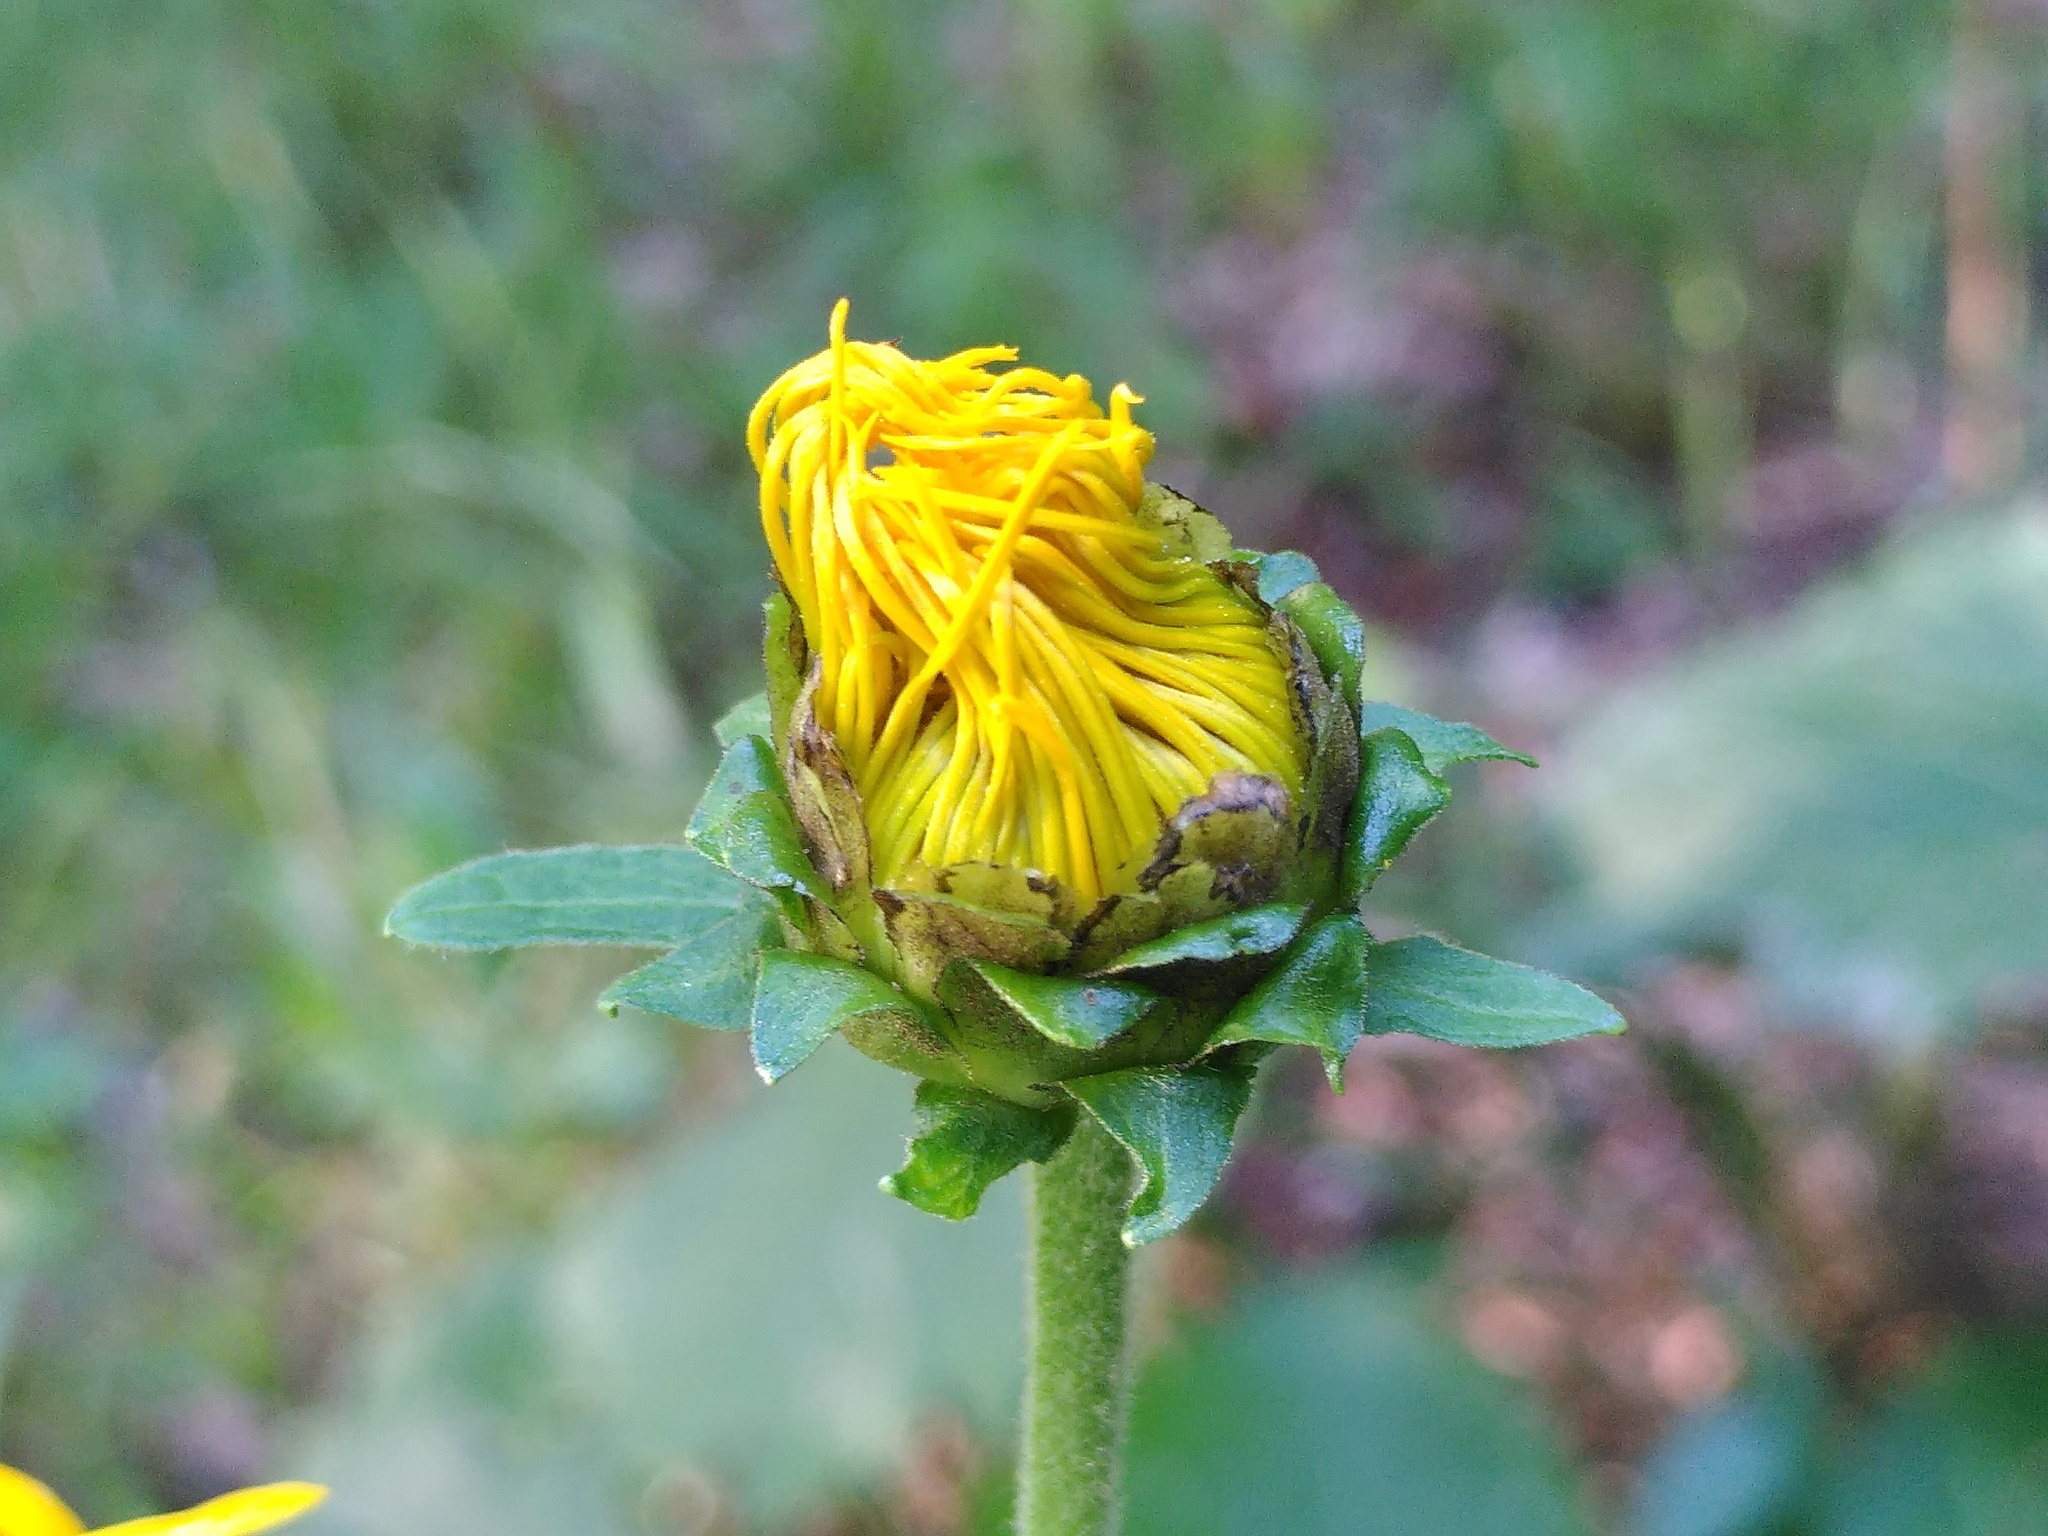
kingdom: Plantae
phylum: Tracheophyta
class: Magnoliopsida
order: Asterales
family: Asteraceae
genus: Telekia
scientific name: Telekia speciosa
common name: Yellow oxeye
